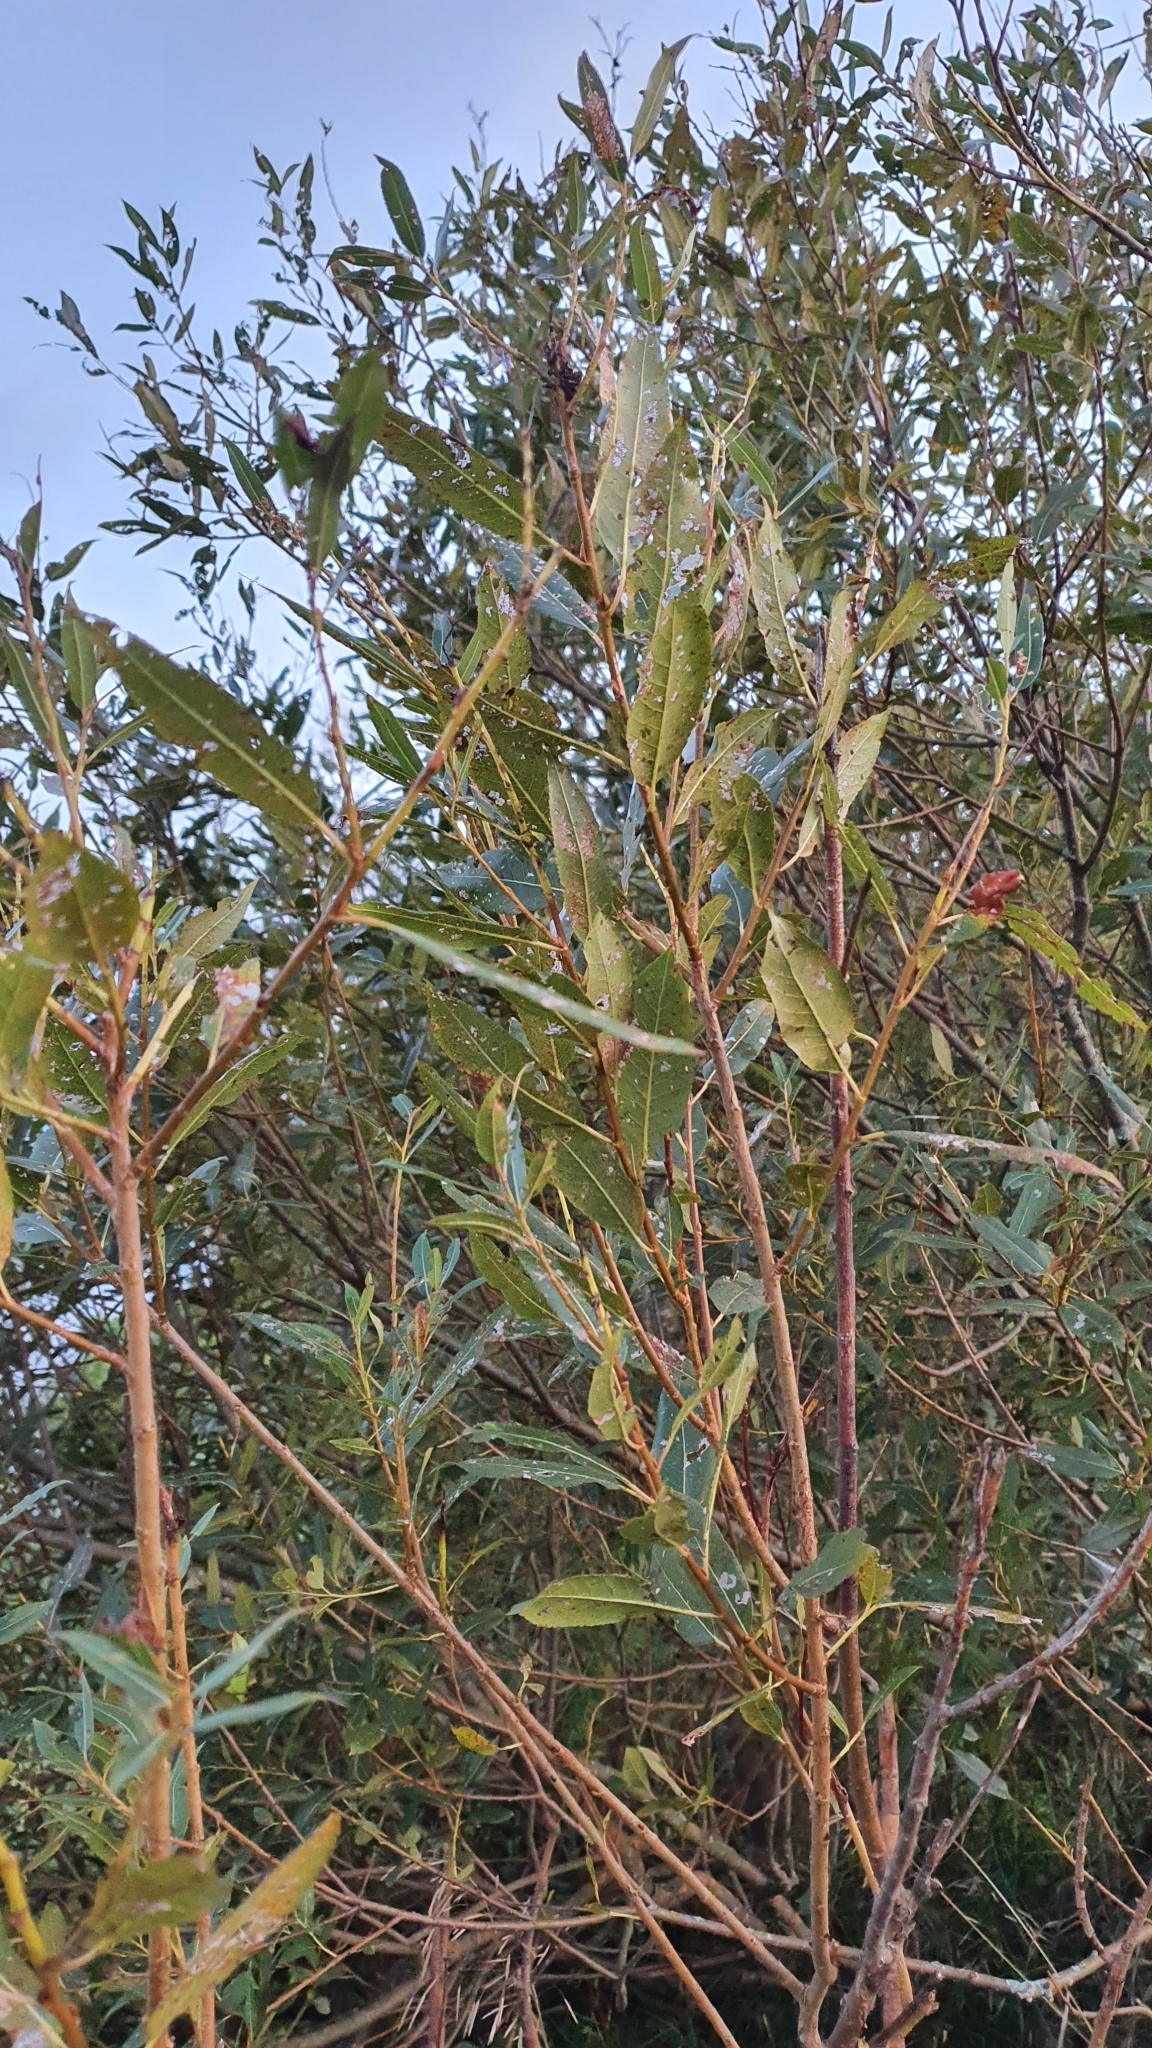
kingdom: Plantae
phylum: Tracheophyta
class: Magnoliopsida
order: Malpighiales
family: Salicaceae
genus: Salix
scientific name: Salix triandra
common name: Almond willow
